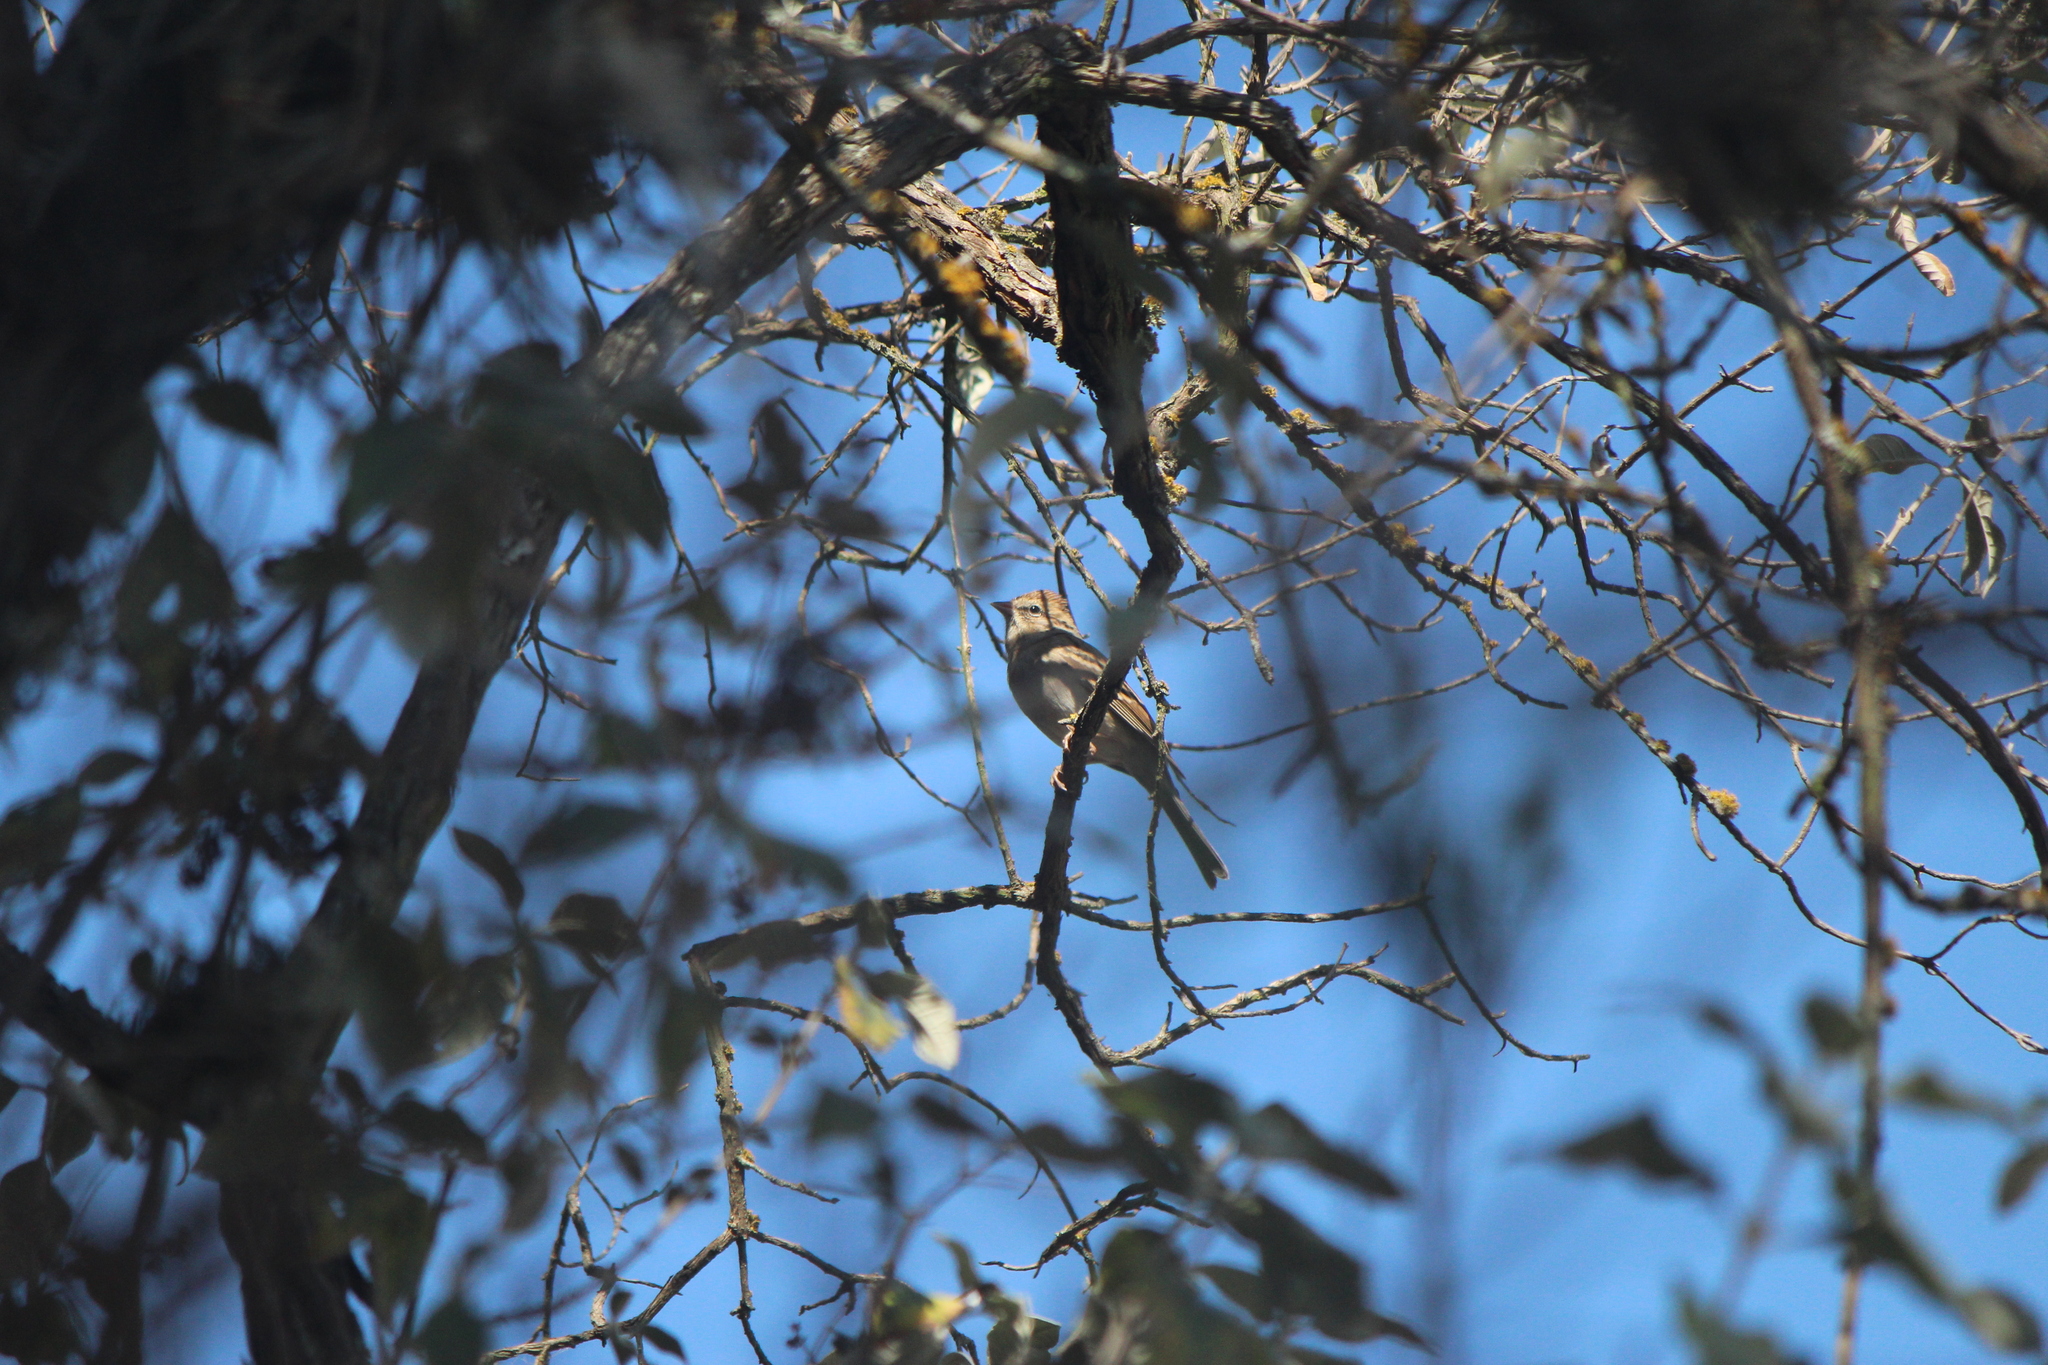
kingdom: Animalia
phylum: Chordata
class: Aves
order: Passeriformes
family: Passerellidae
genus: Spizella
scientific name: Spizella passerina
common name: Chipping sparrow
